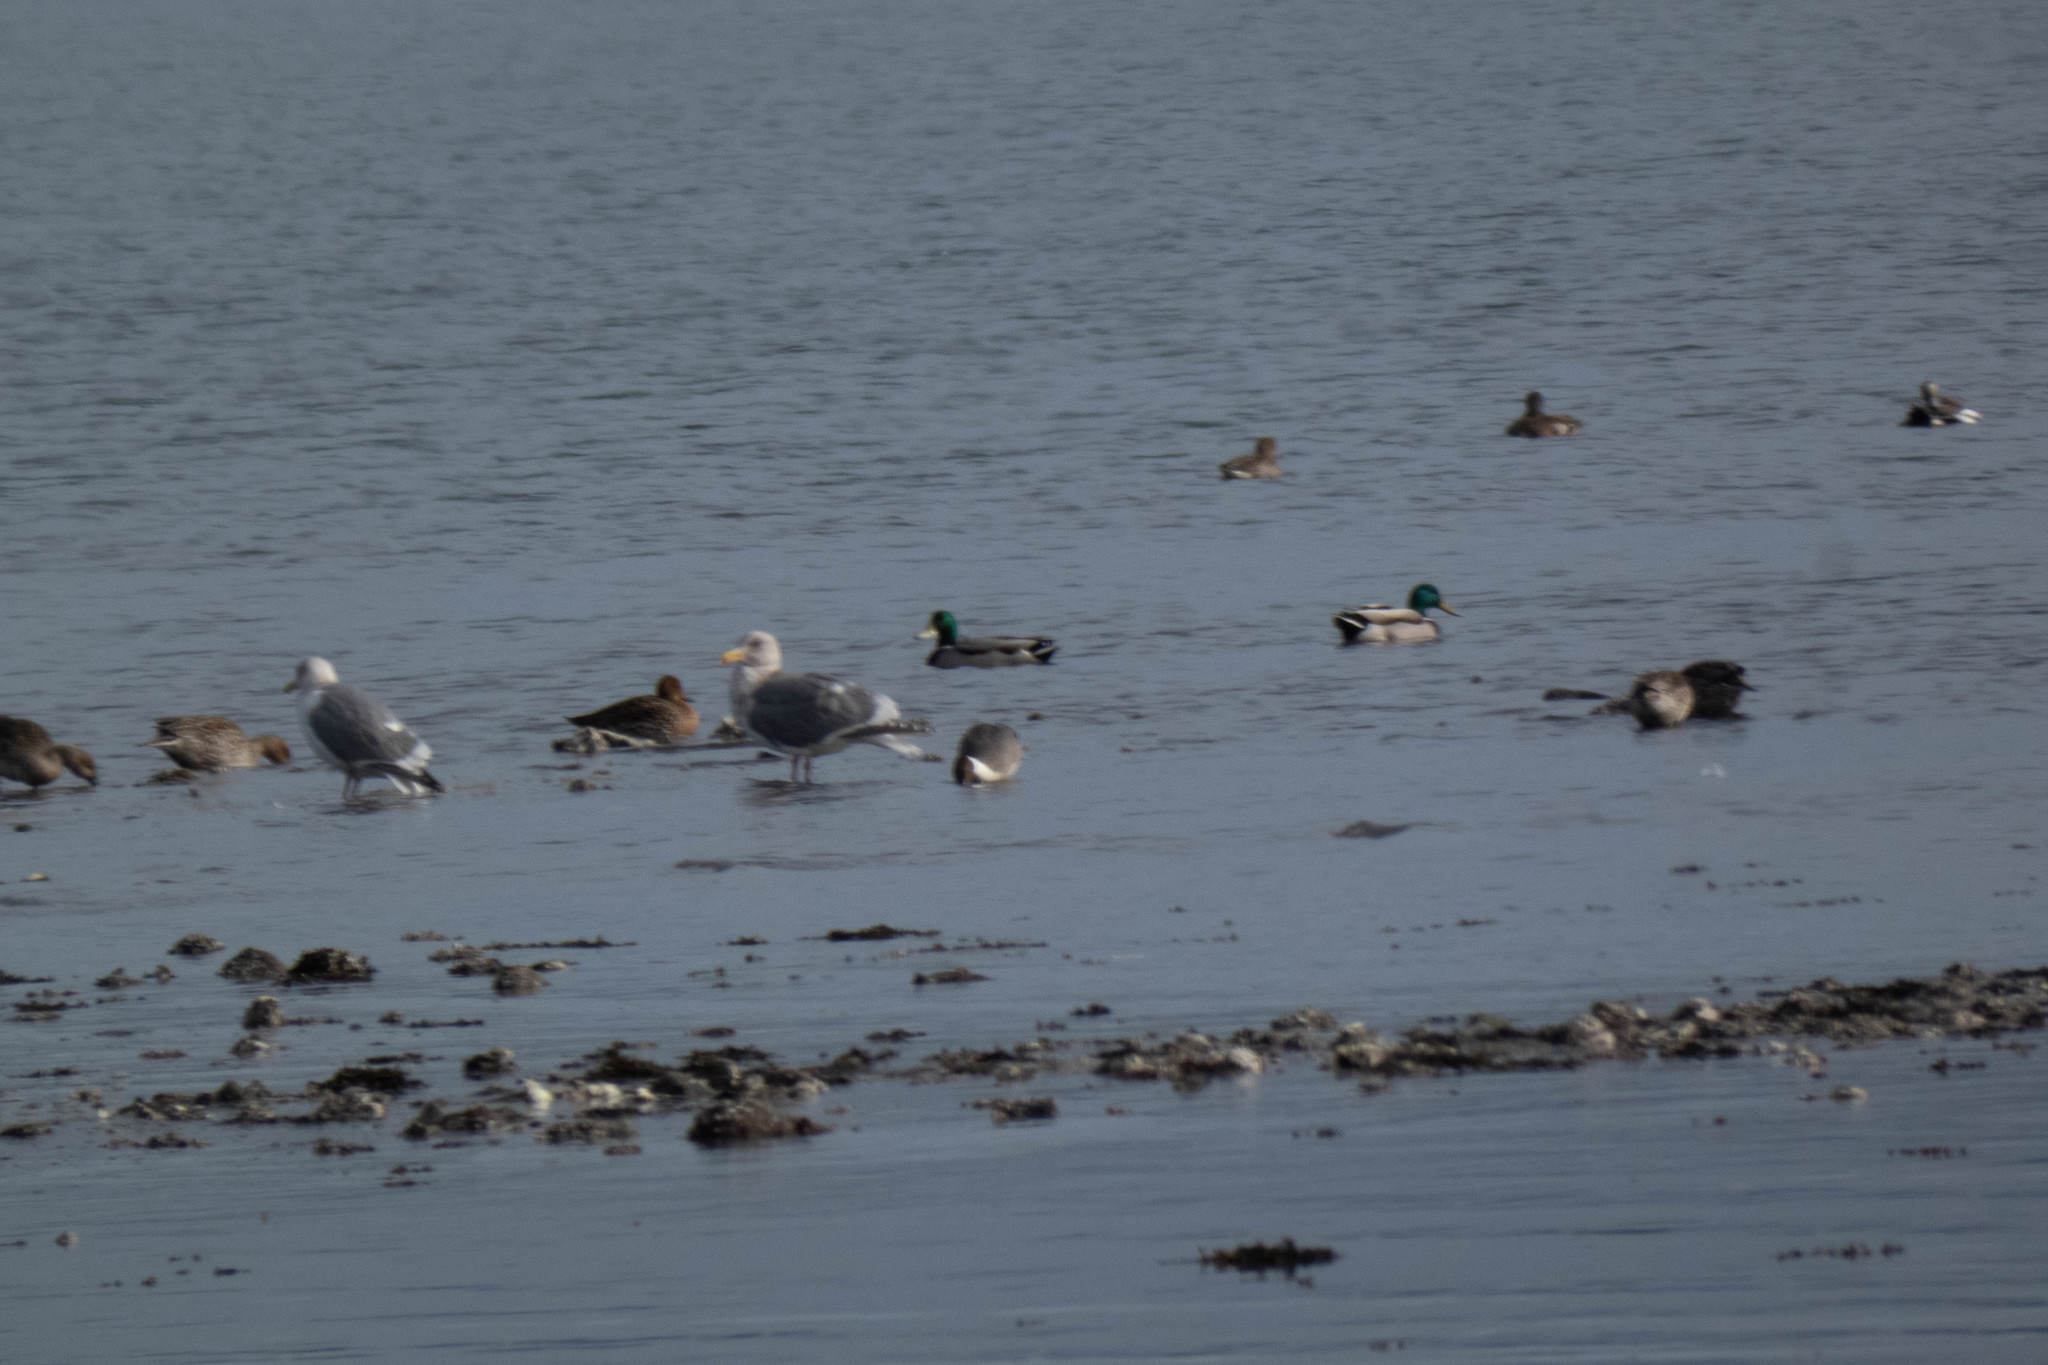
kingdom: Animalia
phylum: Chordata
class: Aves
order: Anseriformes
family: Anatidae
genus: Anas
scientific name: Anas platyrhynchos
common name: Mallard
